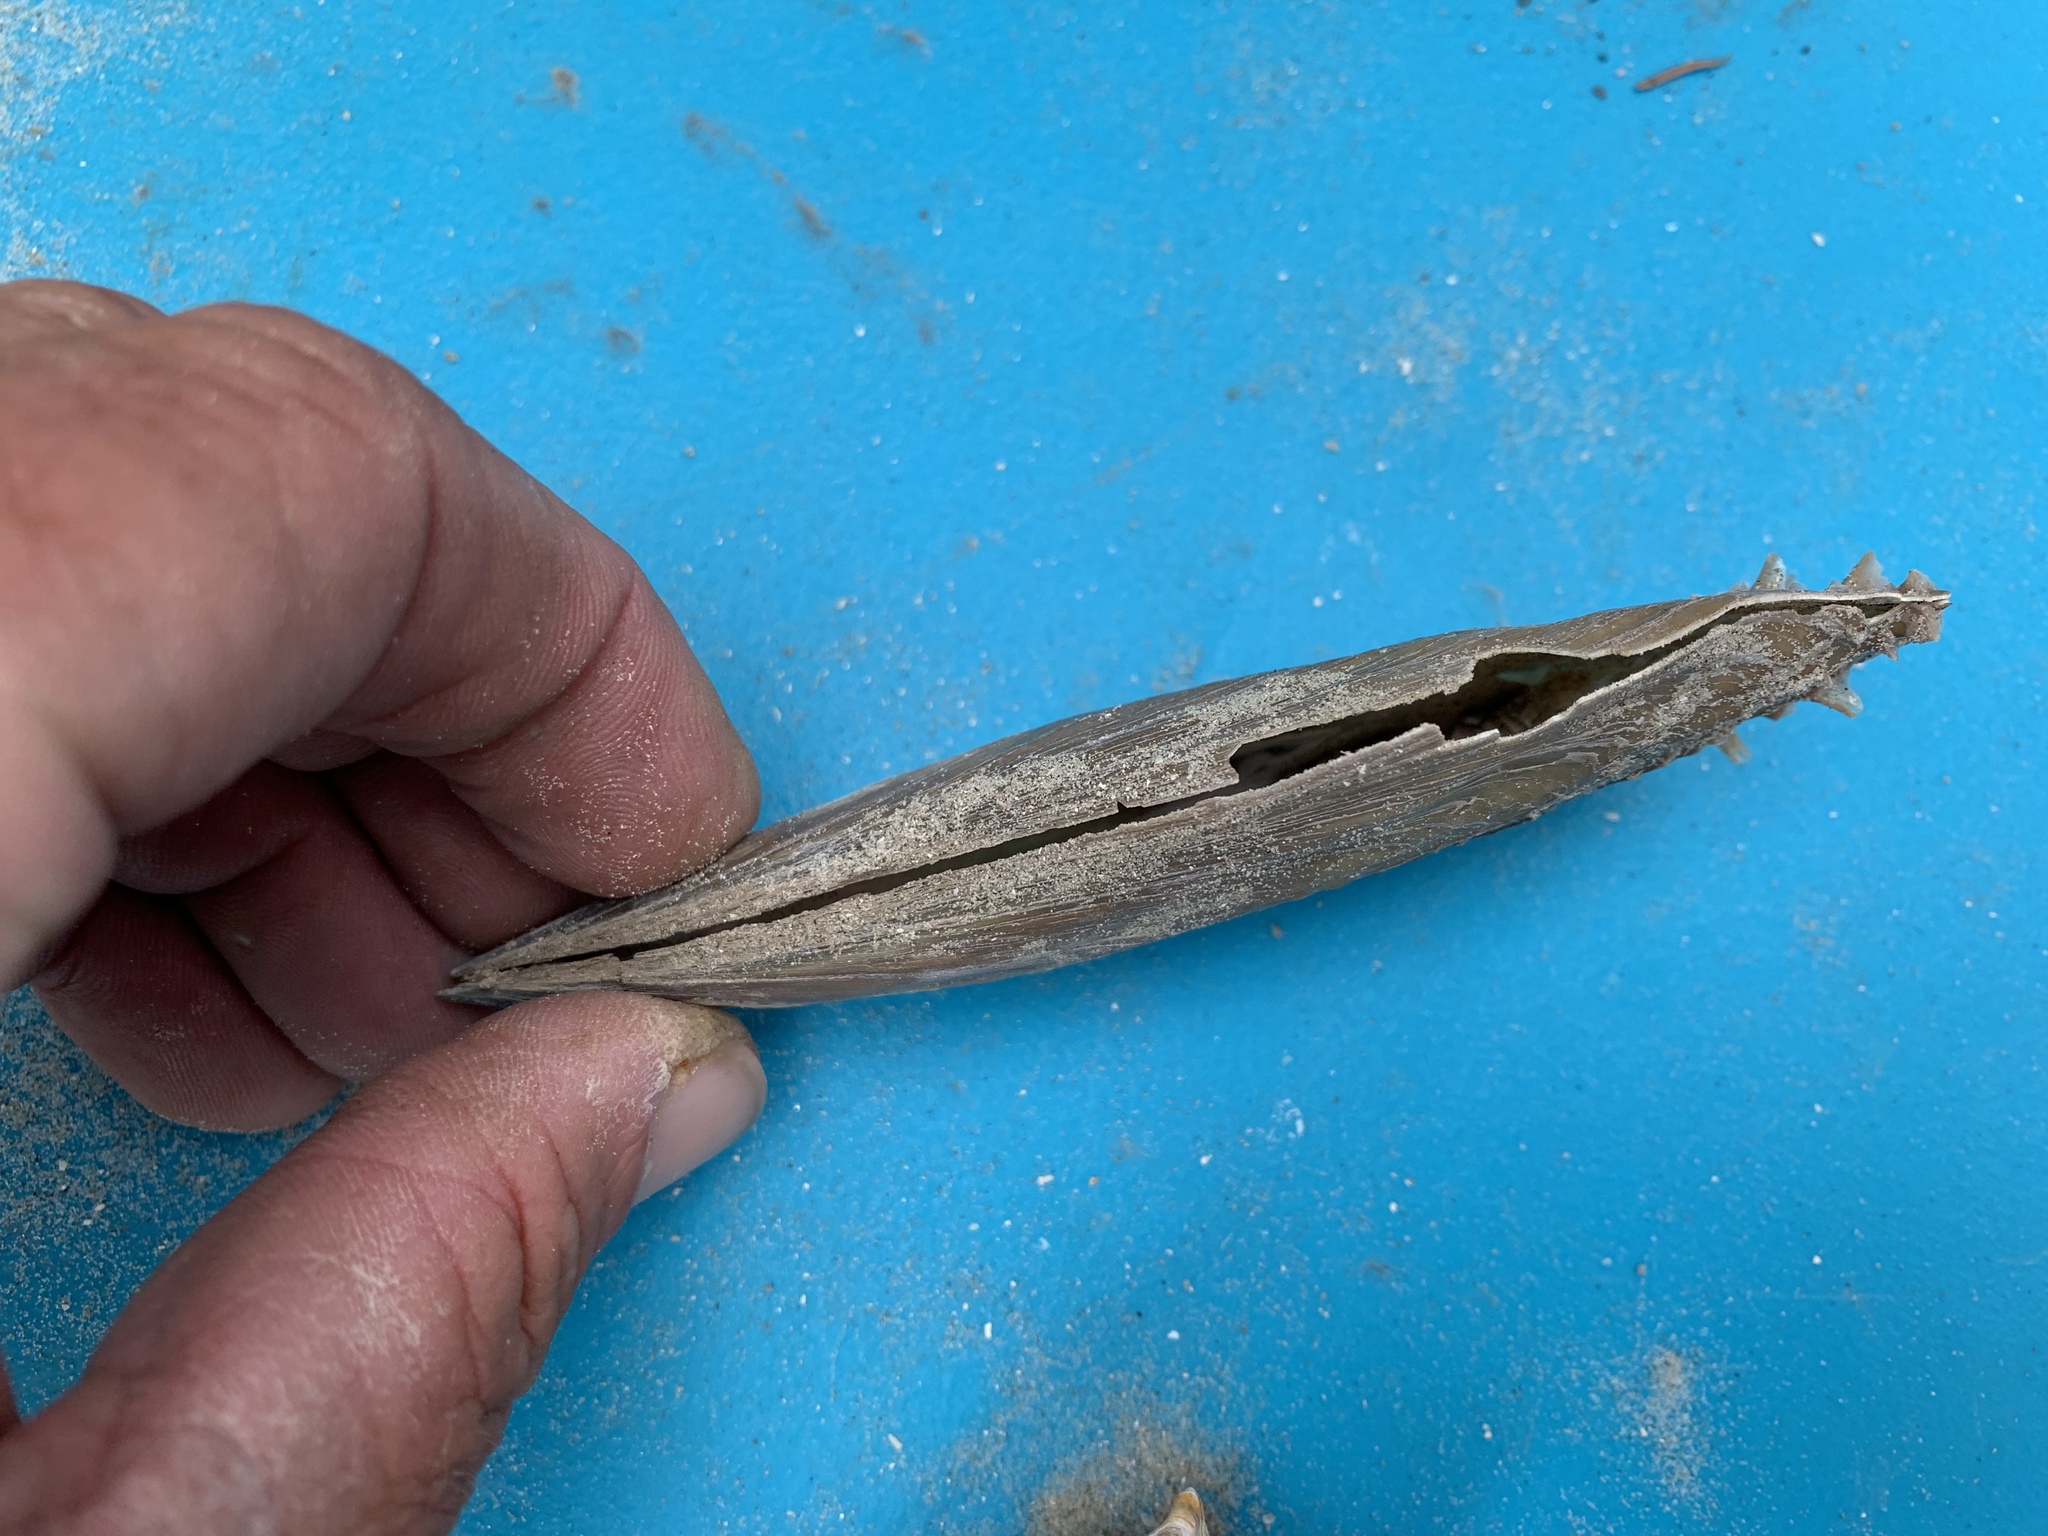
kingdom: Animalia
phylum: Mollusca
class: Bivalvia
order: Ostreida
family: Pinnidae
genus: Atrina
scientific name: Atrina rigida
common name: Stiff penshell
